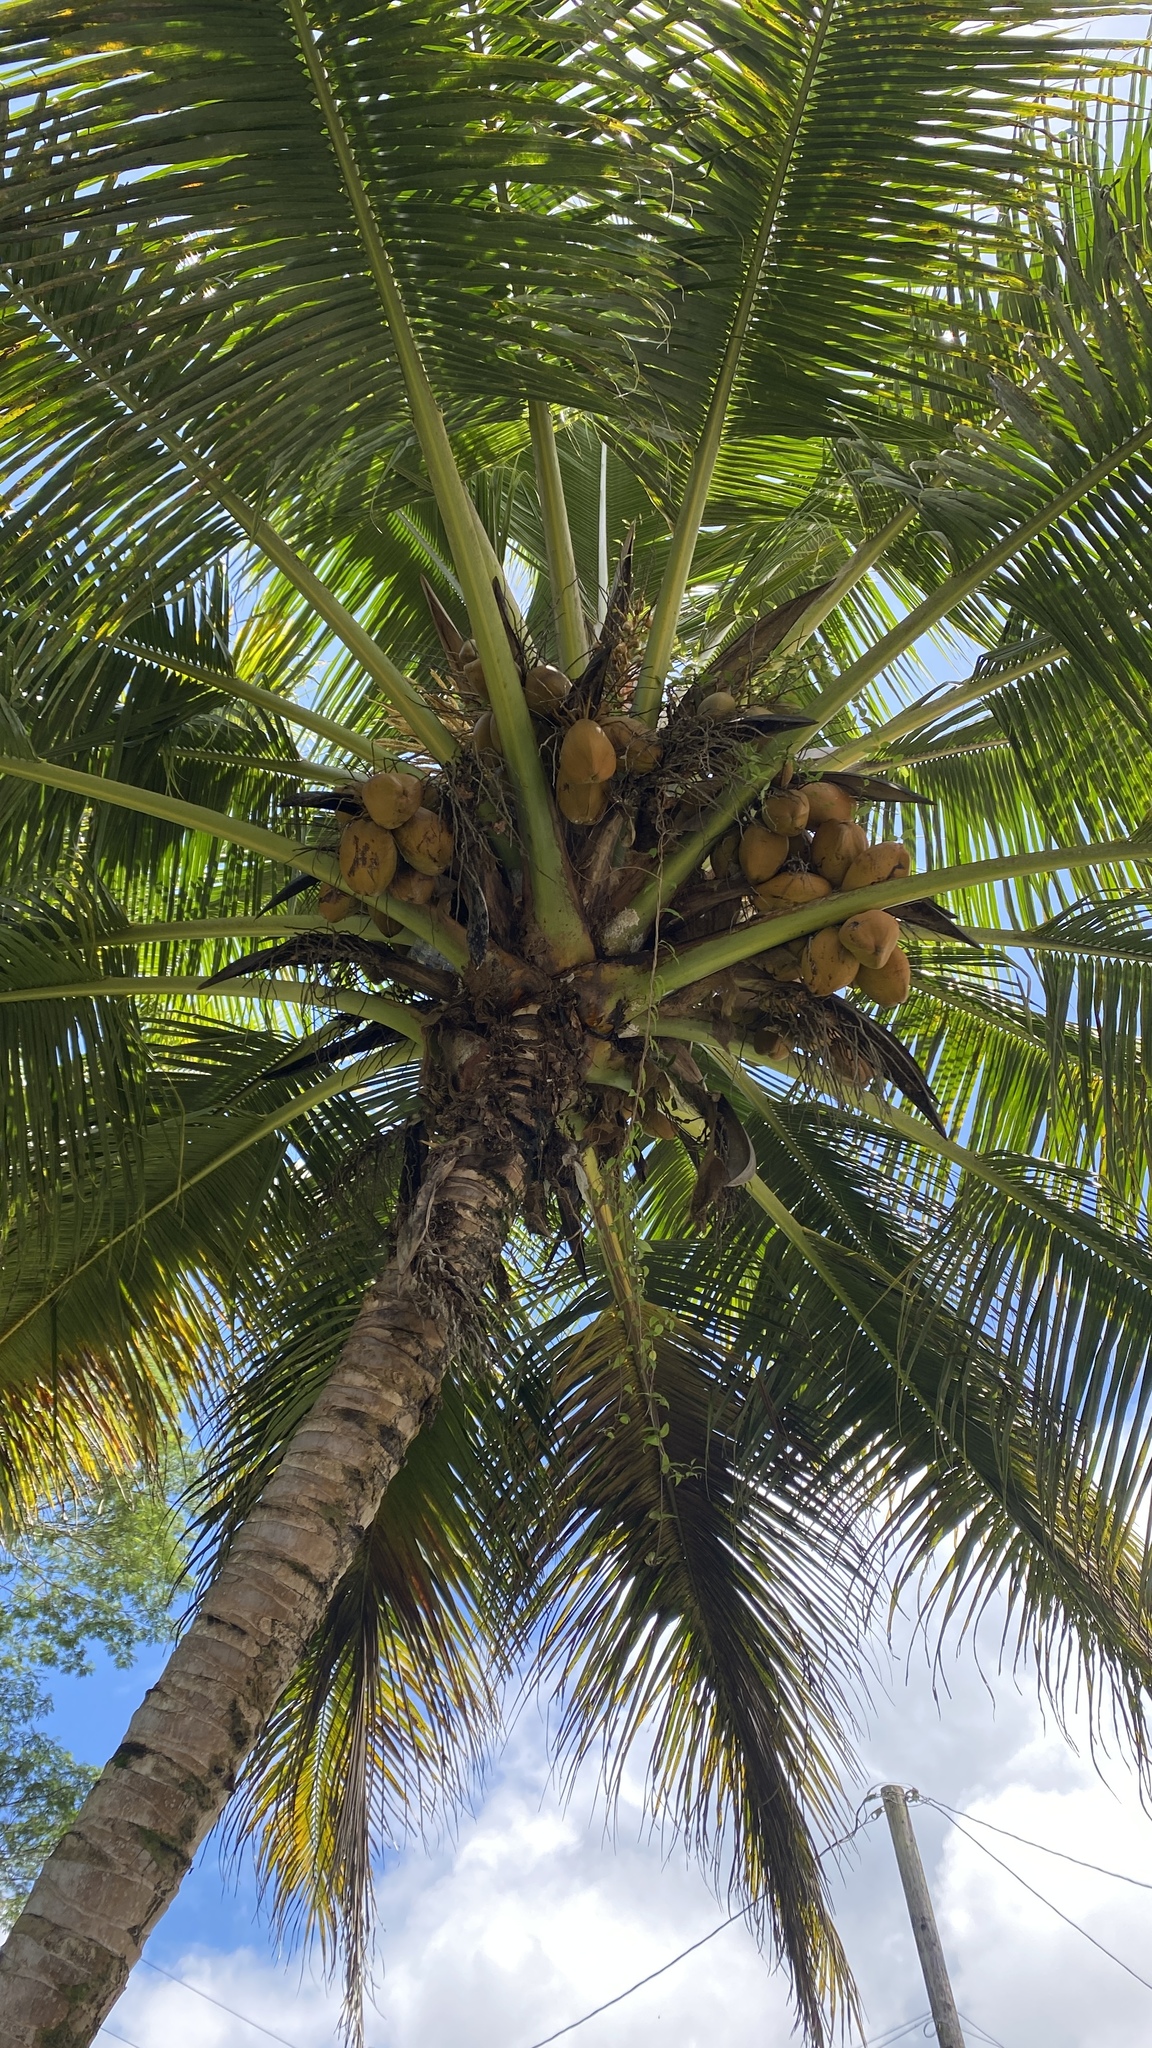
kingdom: Plantae
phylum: Tracheophyta
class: Liliopsida
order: Arecales
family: Arecaceae
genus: Cocos
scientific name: Cocos nucifera
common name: Coconut palm
